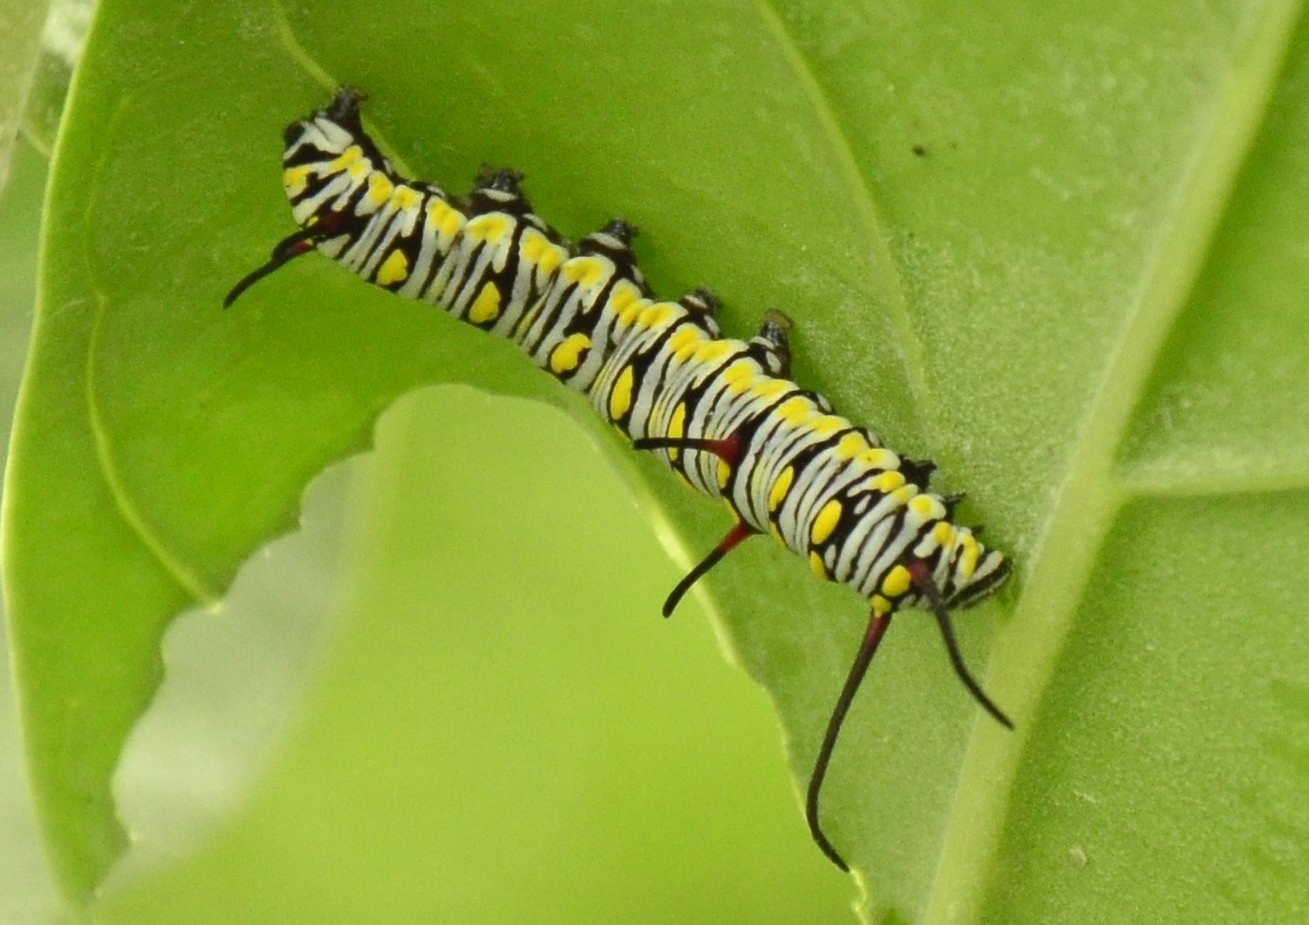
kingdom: Animalia
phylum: Arthropoda
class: Insecta
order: Lepidoptera
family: Nymphalidae
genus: Danaus
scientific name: Danaus chrysippus
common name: Plain tiger
